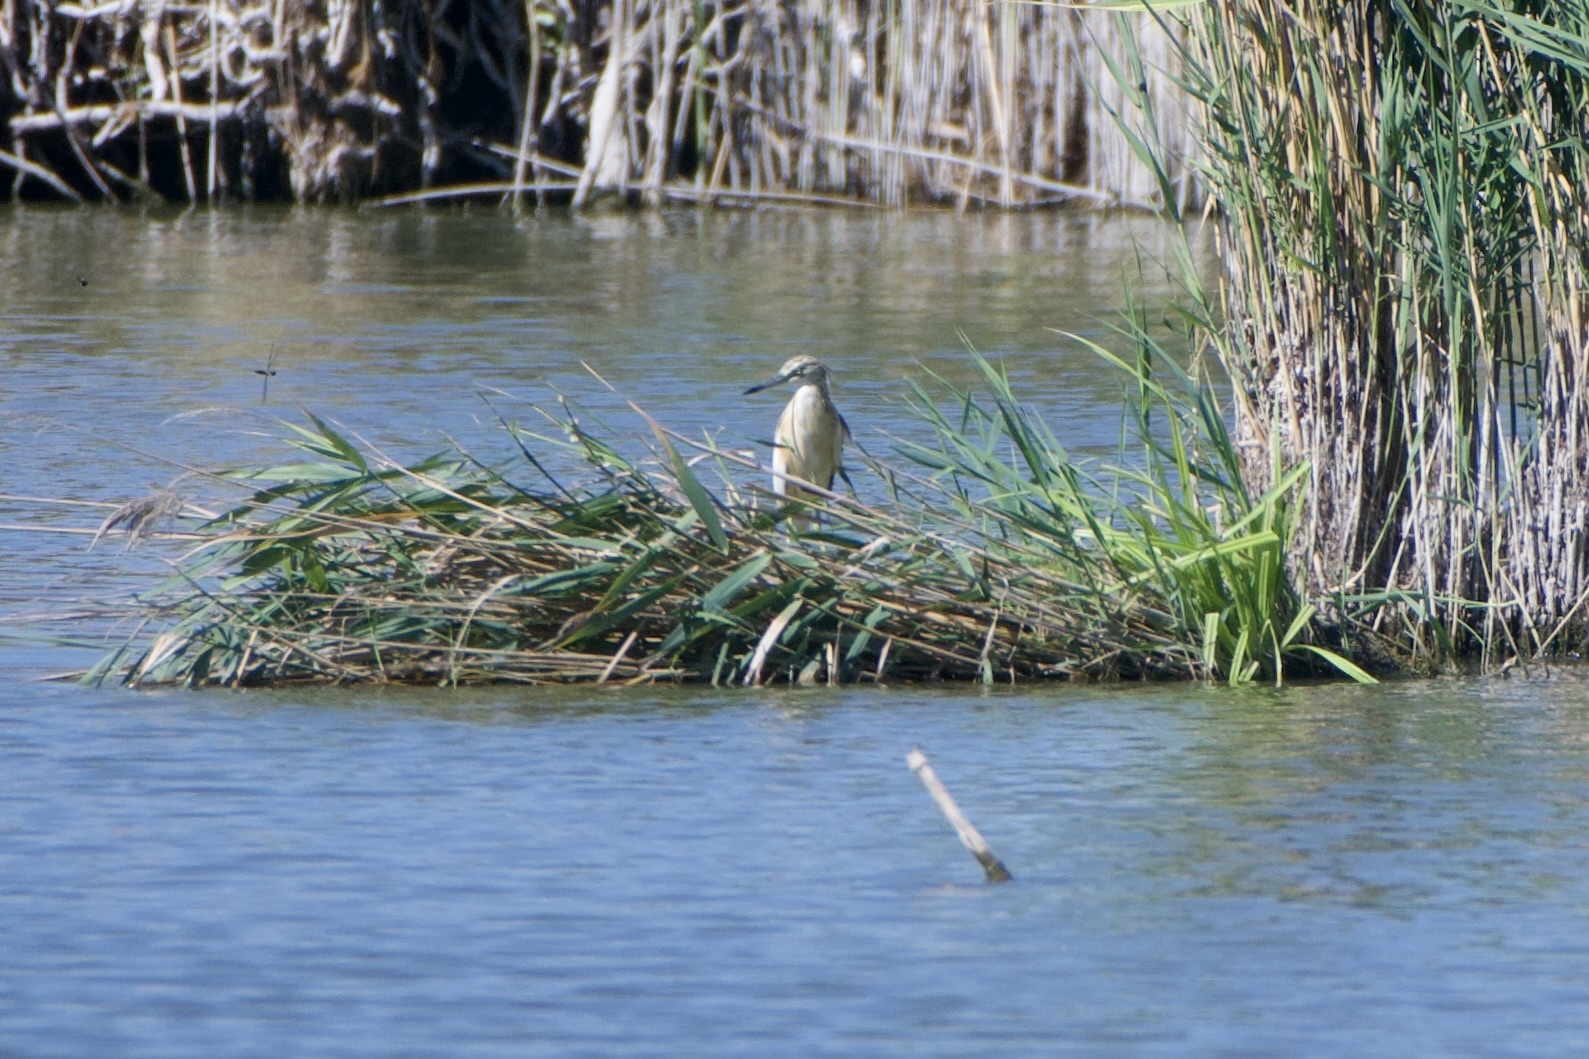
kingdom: Animalia
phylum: Chordata
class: Aves
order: Pelecaniformes
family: Ardeidae
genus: Ardeola
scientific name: Ardeola ralloides
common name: Squacco heron
